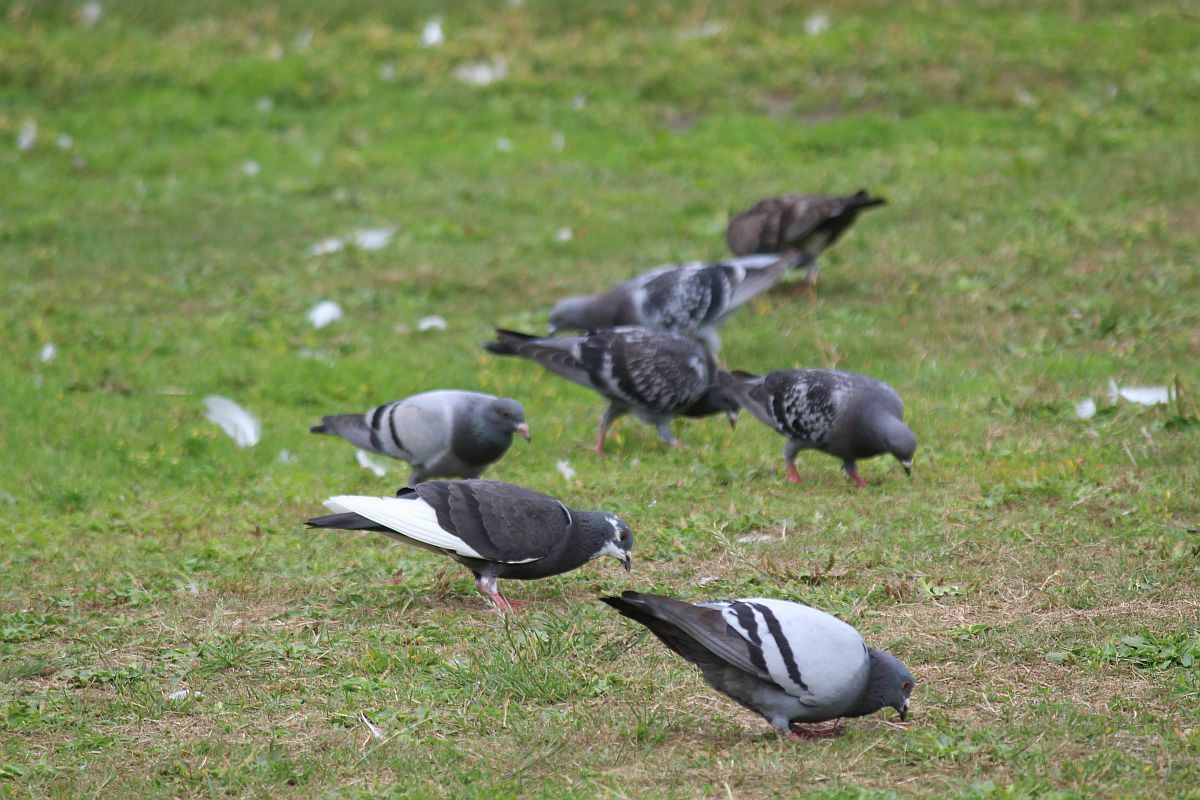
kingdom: Animalia
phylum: Chordata
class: Aves
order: Columbiformes
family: Columbidae
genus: Columba
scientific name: Columba livia
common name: Rock pigeon
